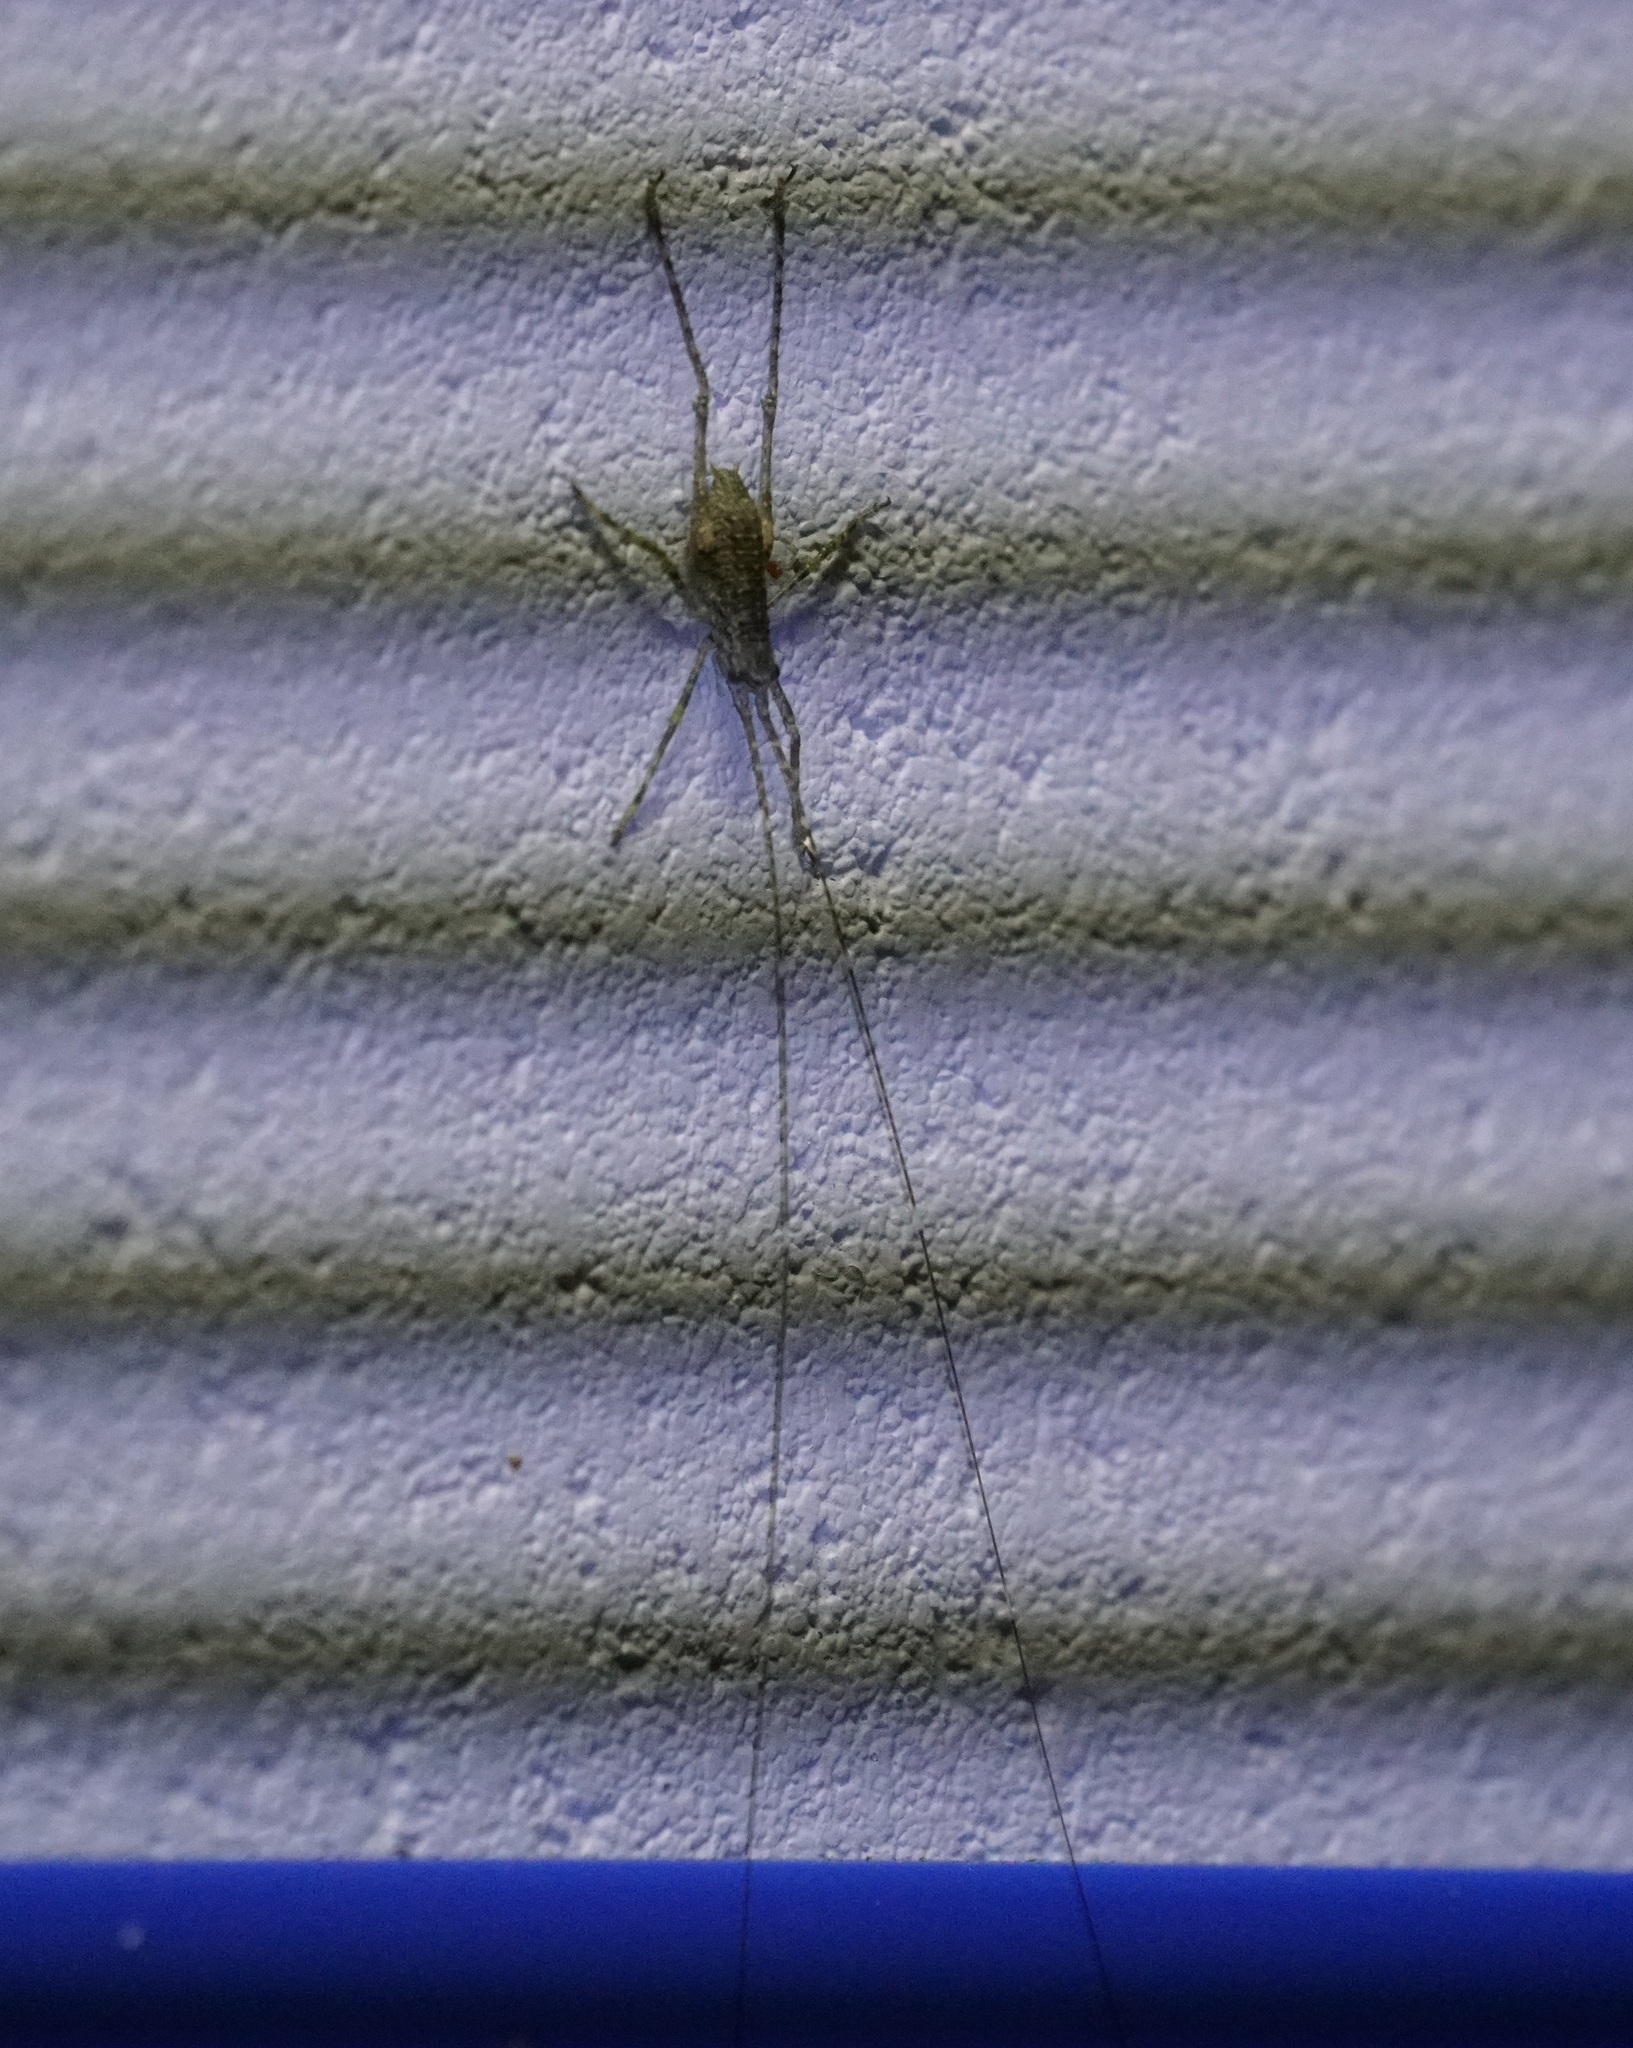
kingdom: Animalia
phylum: Arthropoda
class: Insecta
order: Orthoptera
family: Tettigoniidae
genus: Phricta
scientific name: Phricta spinosa
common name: Giant spiny forest katydid
